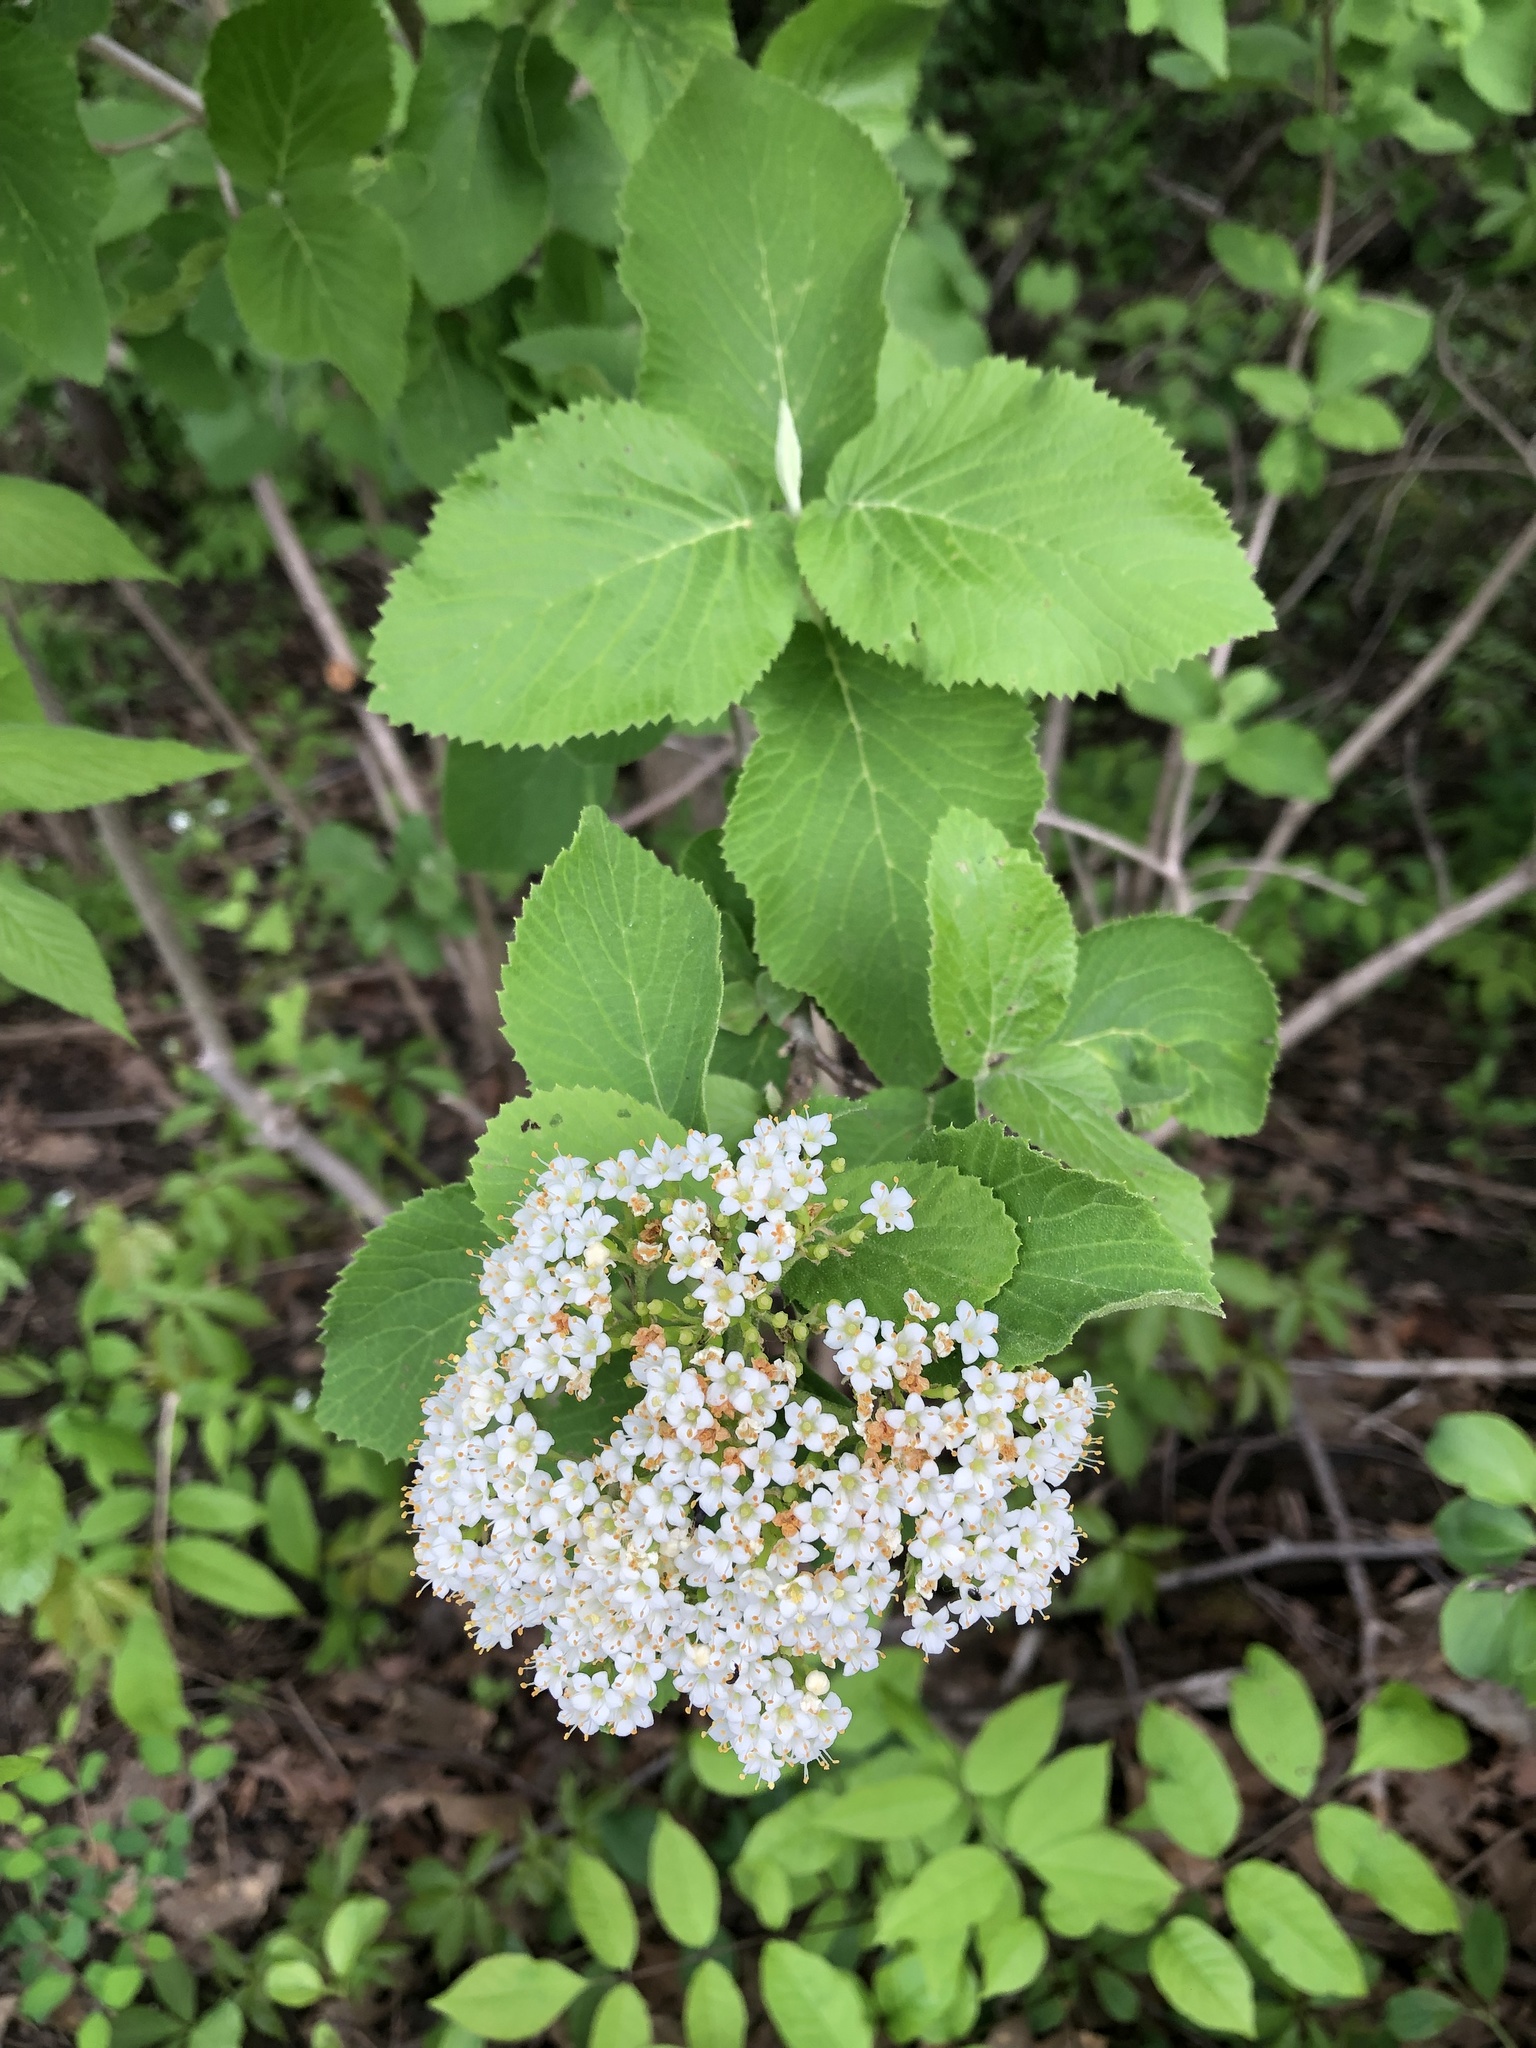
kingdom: Plantae
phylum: Tracheophyta
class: Magnoliopsida
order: Dipsacales
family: Viburnaceae
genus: Viburnum
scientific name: Viburnum lantana
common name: Wayfaring tree
